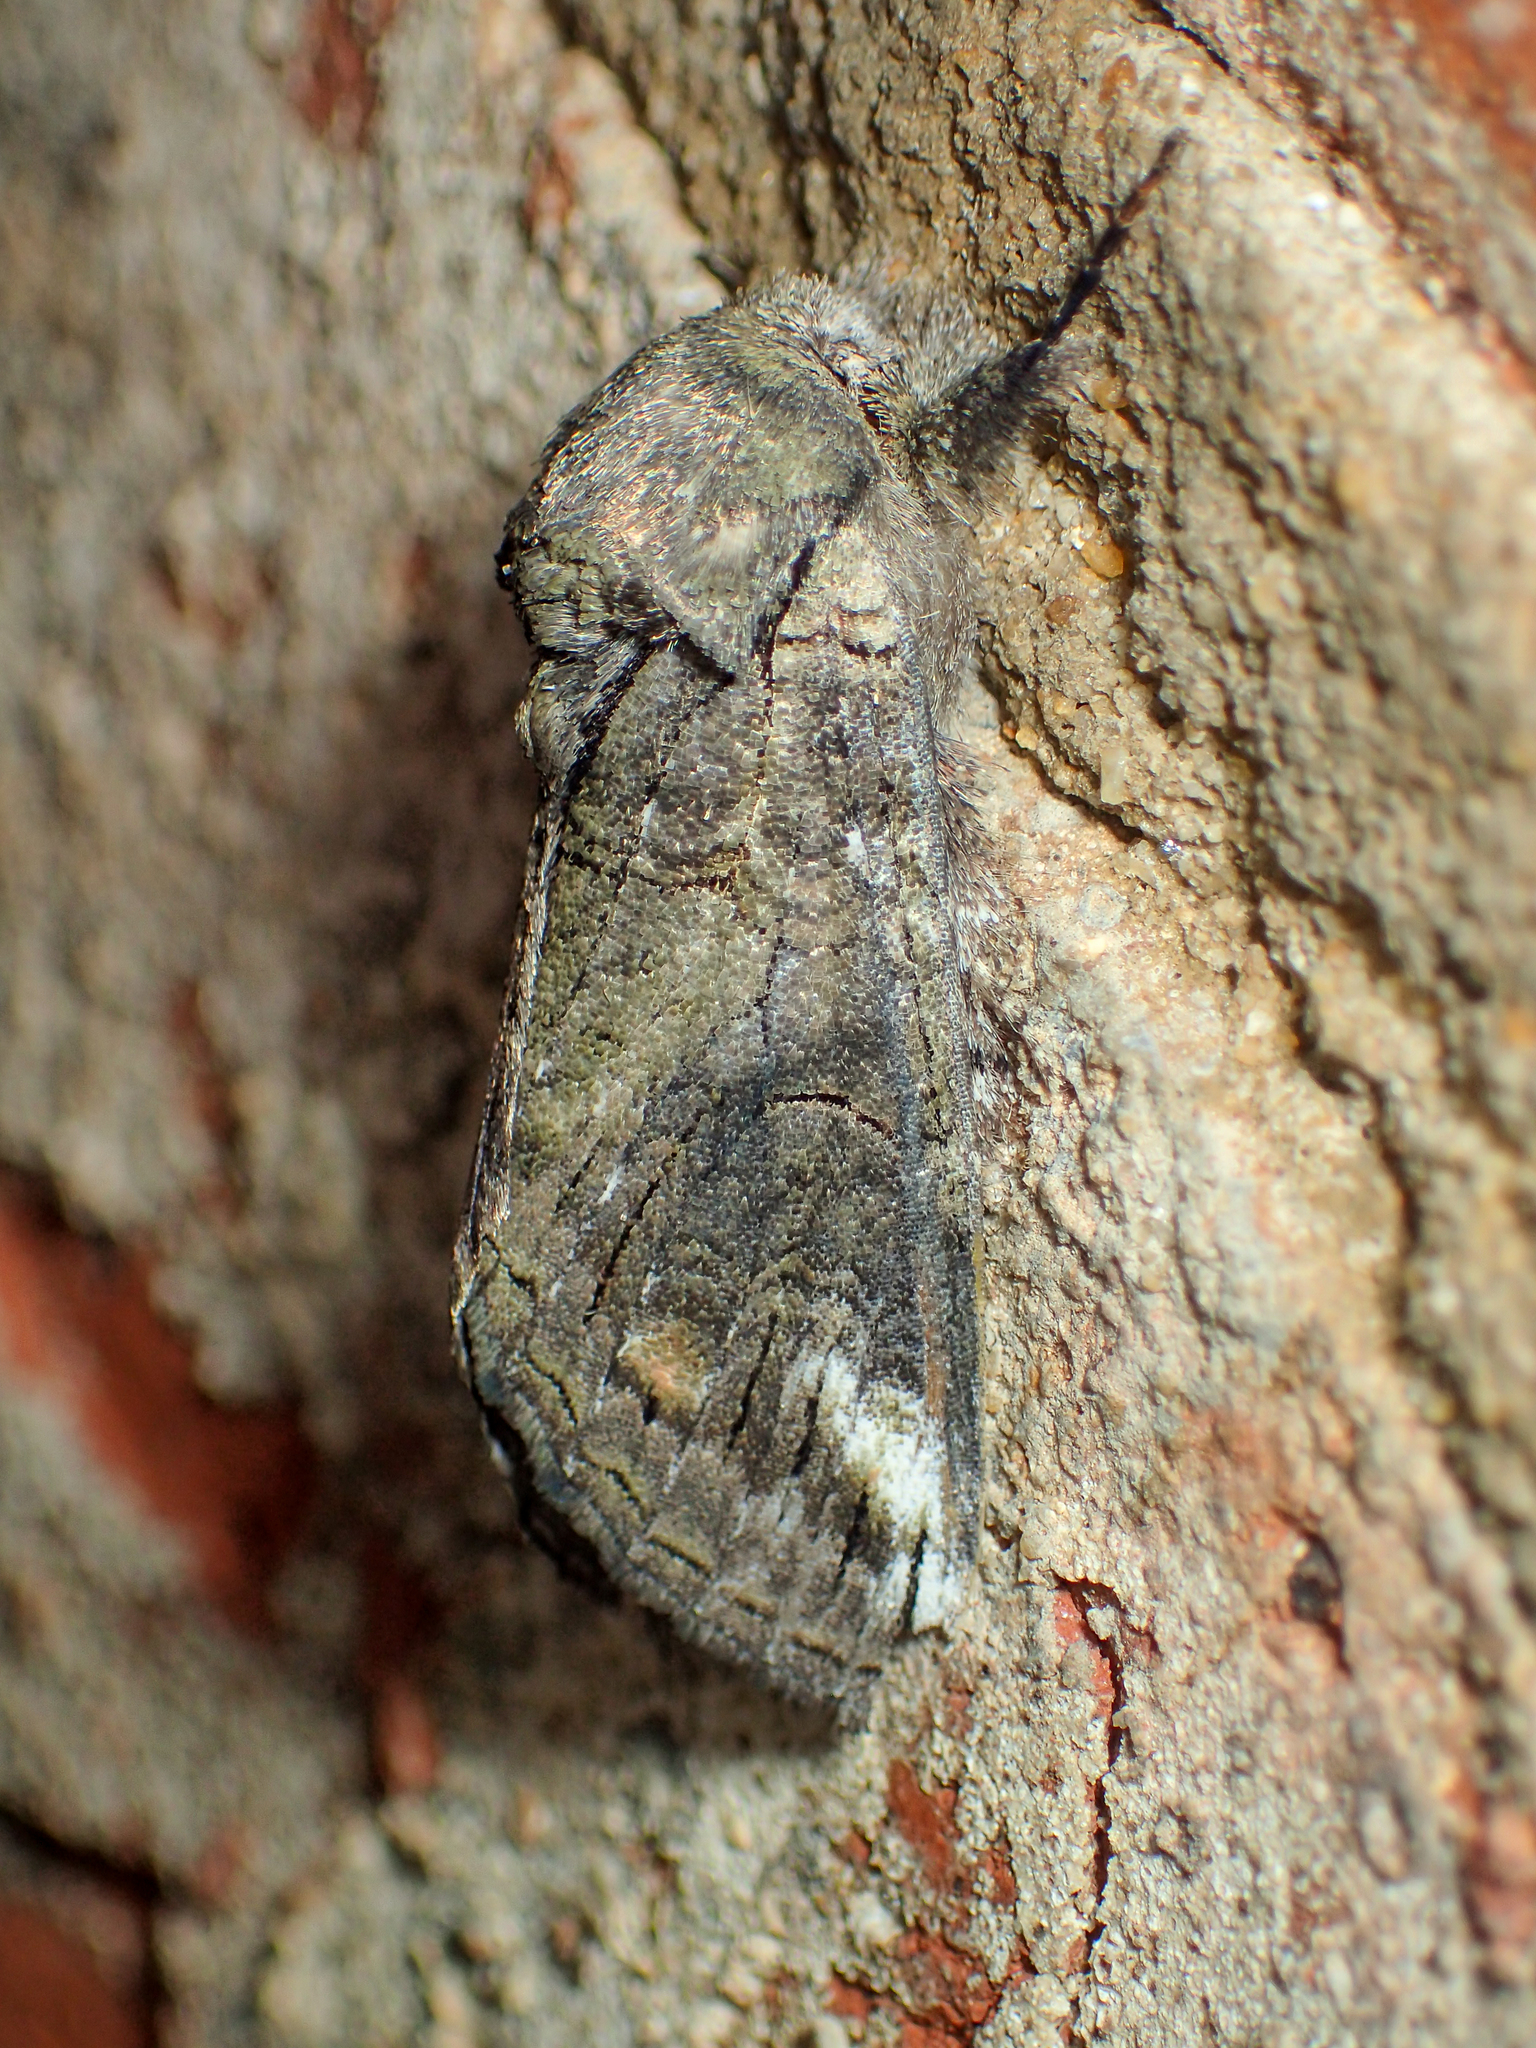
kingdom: Animalia
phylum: Arthropoda
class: Insecta
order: Lepidoptera
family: Notodontidae
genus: Heterocampa
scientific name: Heterocampa obliqua
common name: Oblique heterocampa
